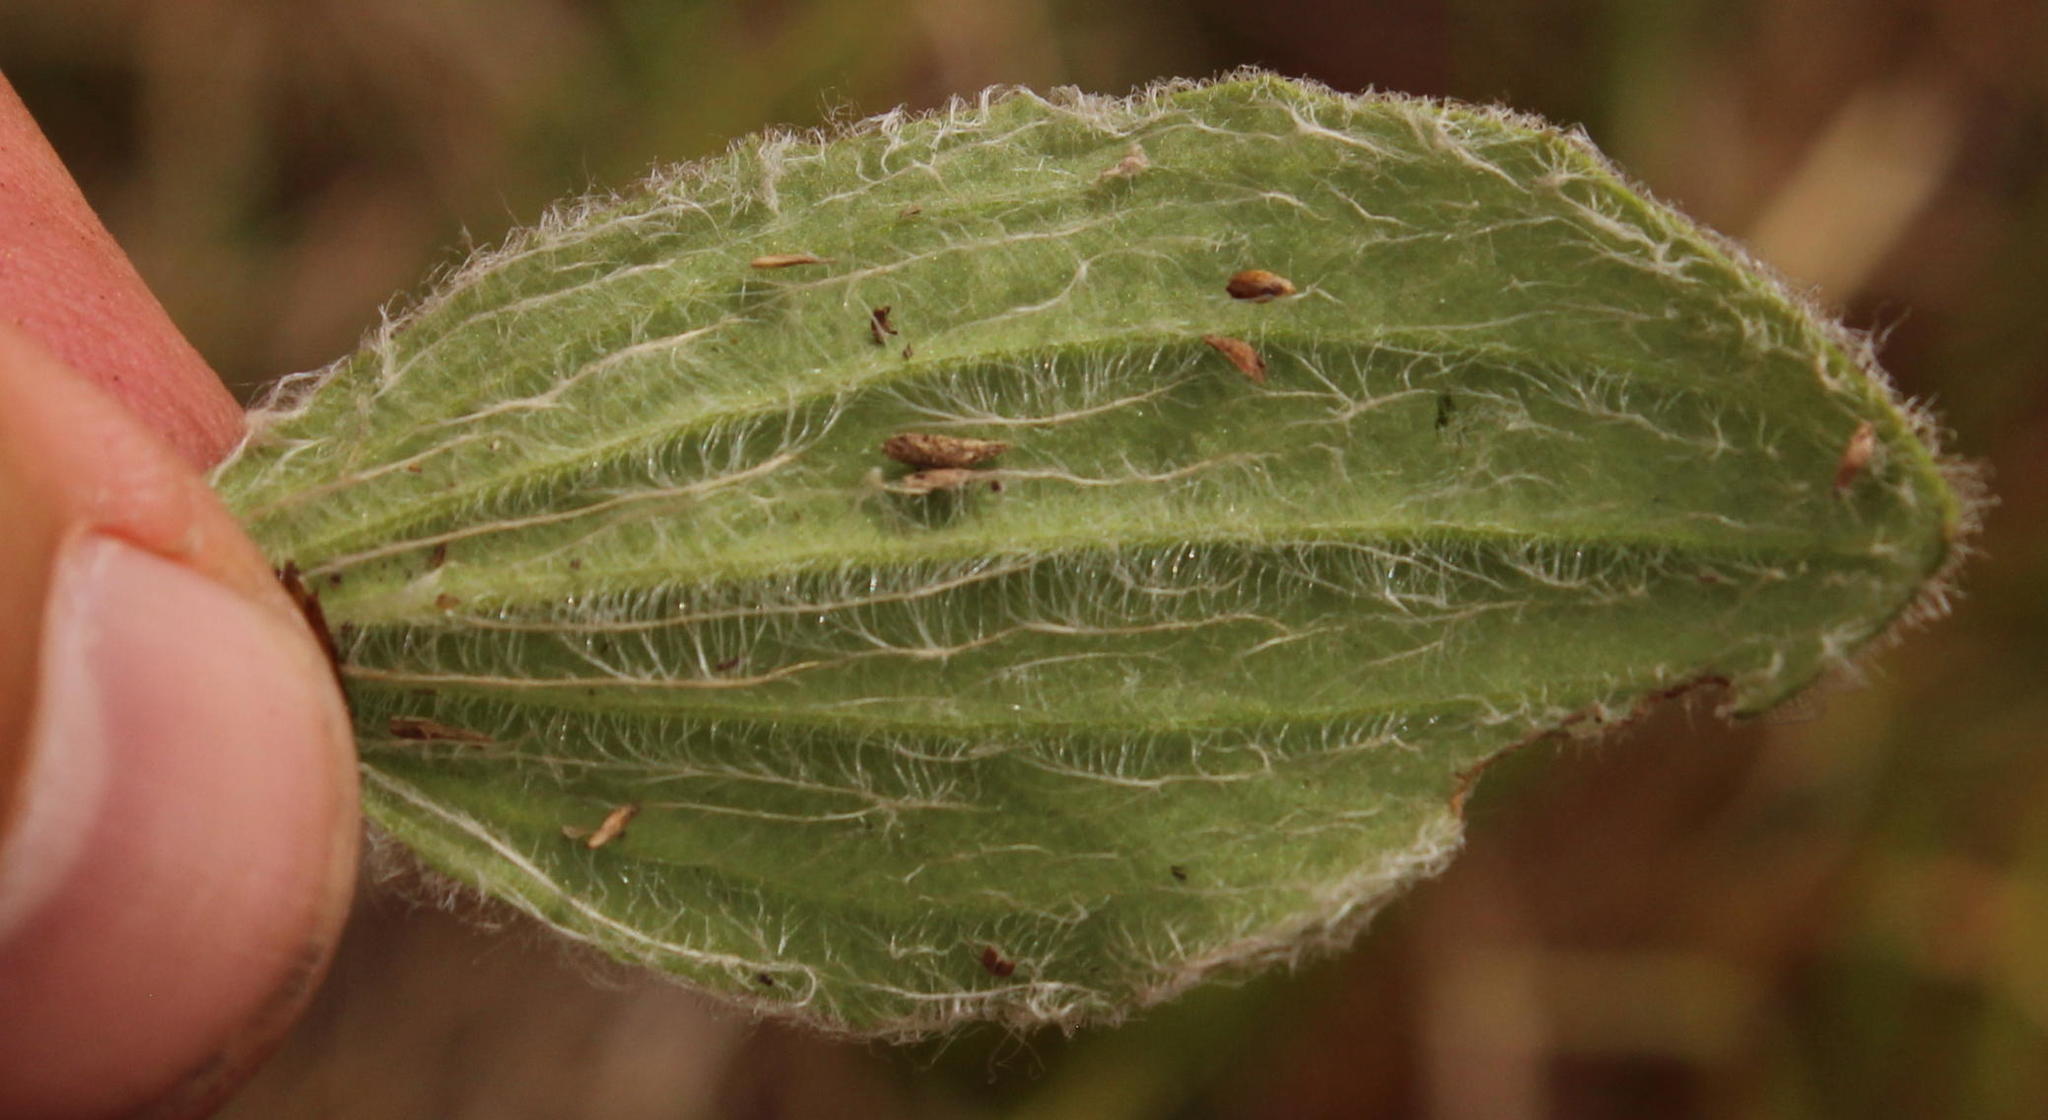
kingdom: Plantae
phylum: Tracheophyta
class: Magnoliopsida
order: Lamiales
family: Plantaginaceae
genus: Plantago
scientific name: Plantago major
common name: Common plantain
